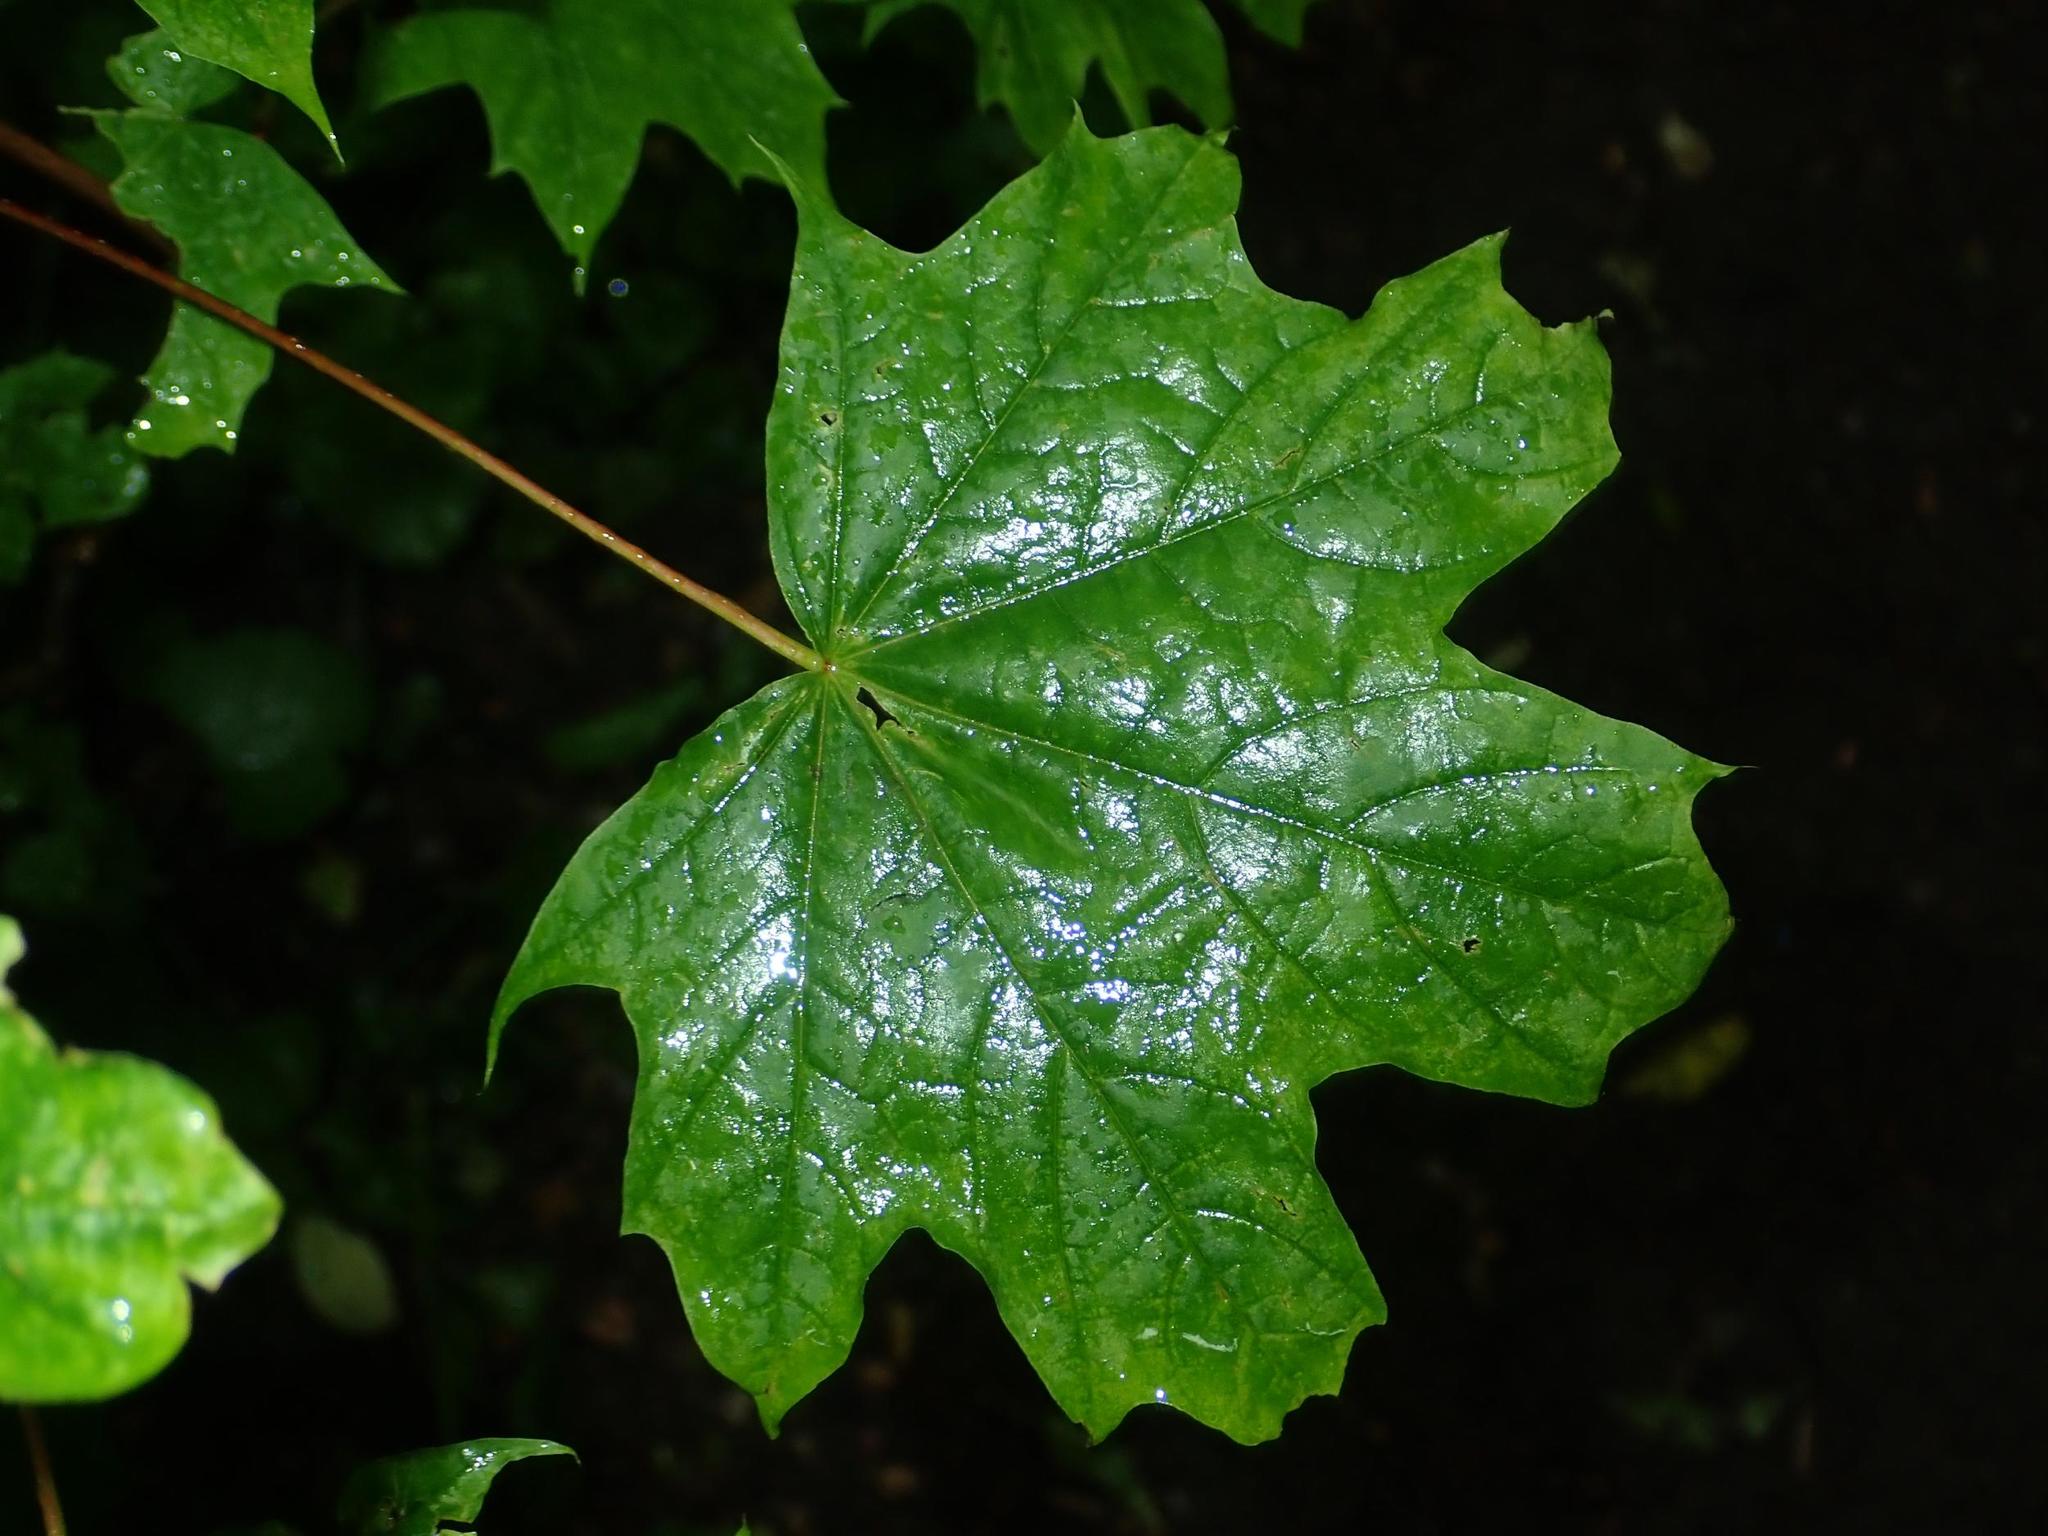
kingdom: Plantae
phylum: Tracheophyta
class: Magnoliopsida
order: Sapindales
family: Sapindaceae
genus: Acer
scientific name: Acer platanoides
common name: Norway maple
